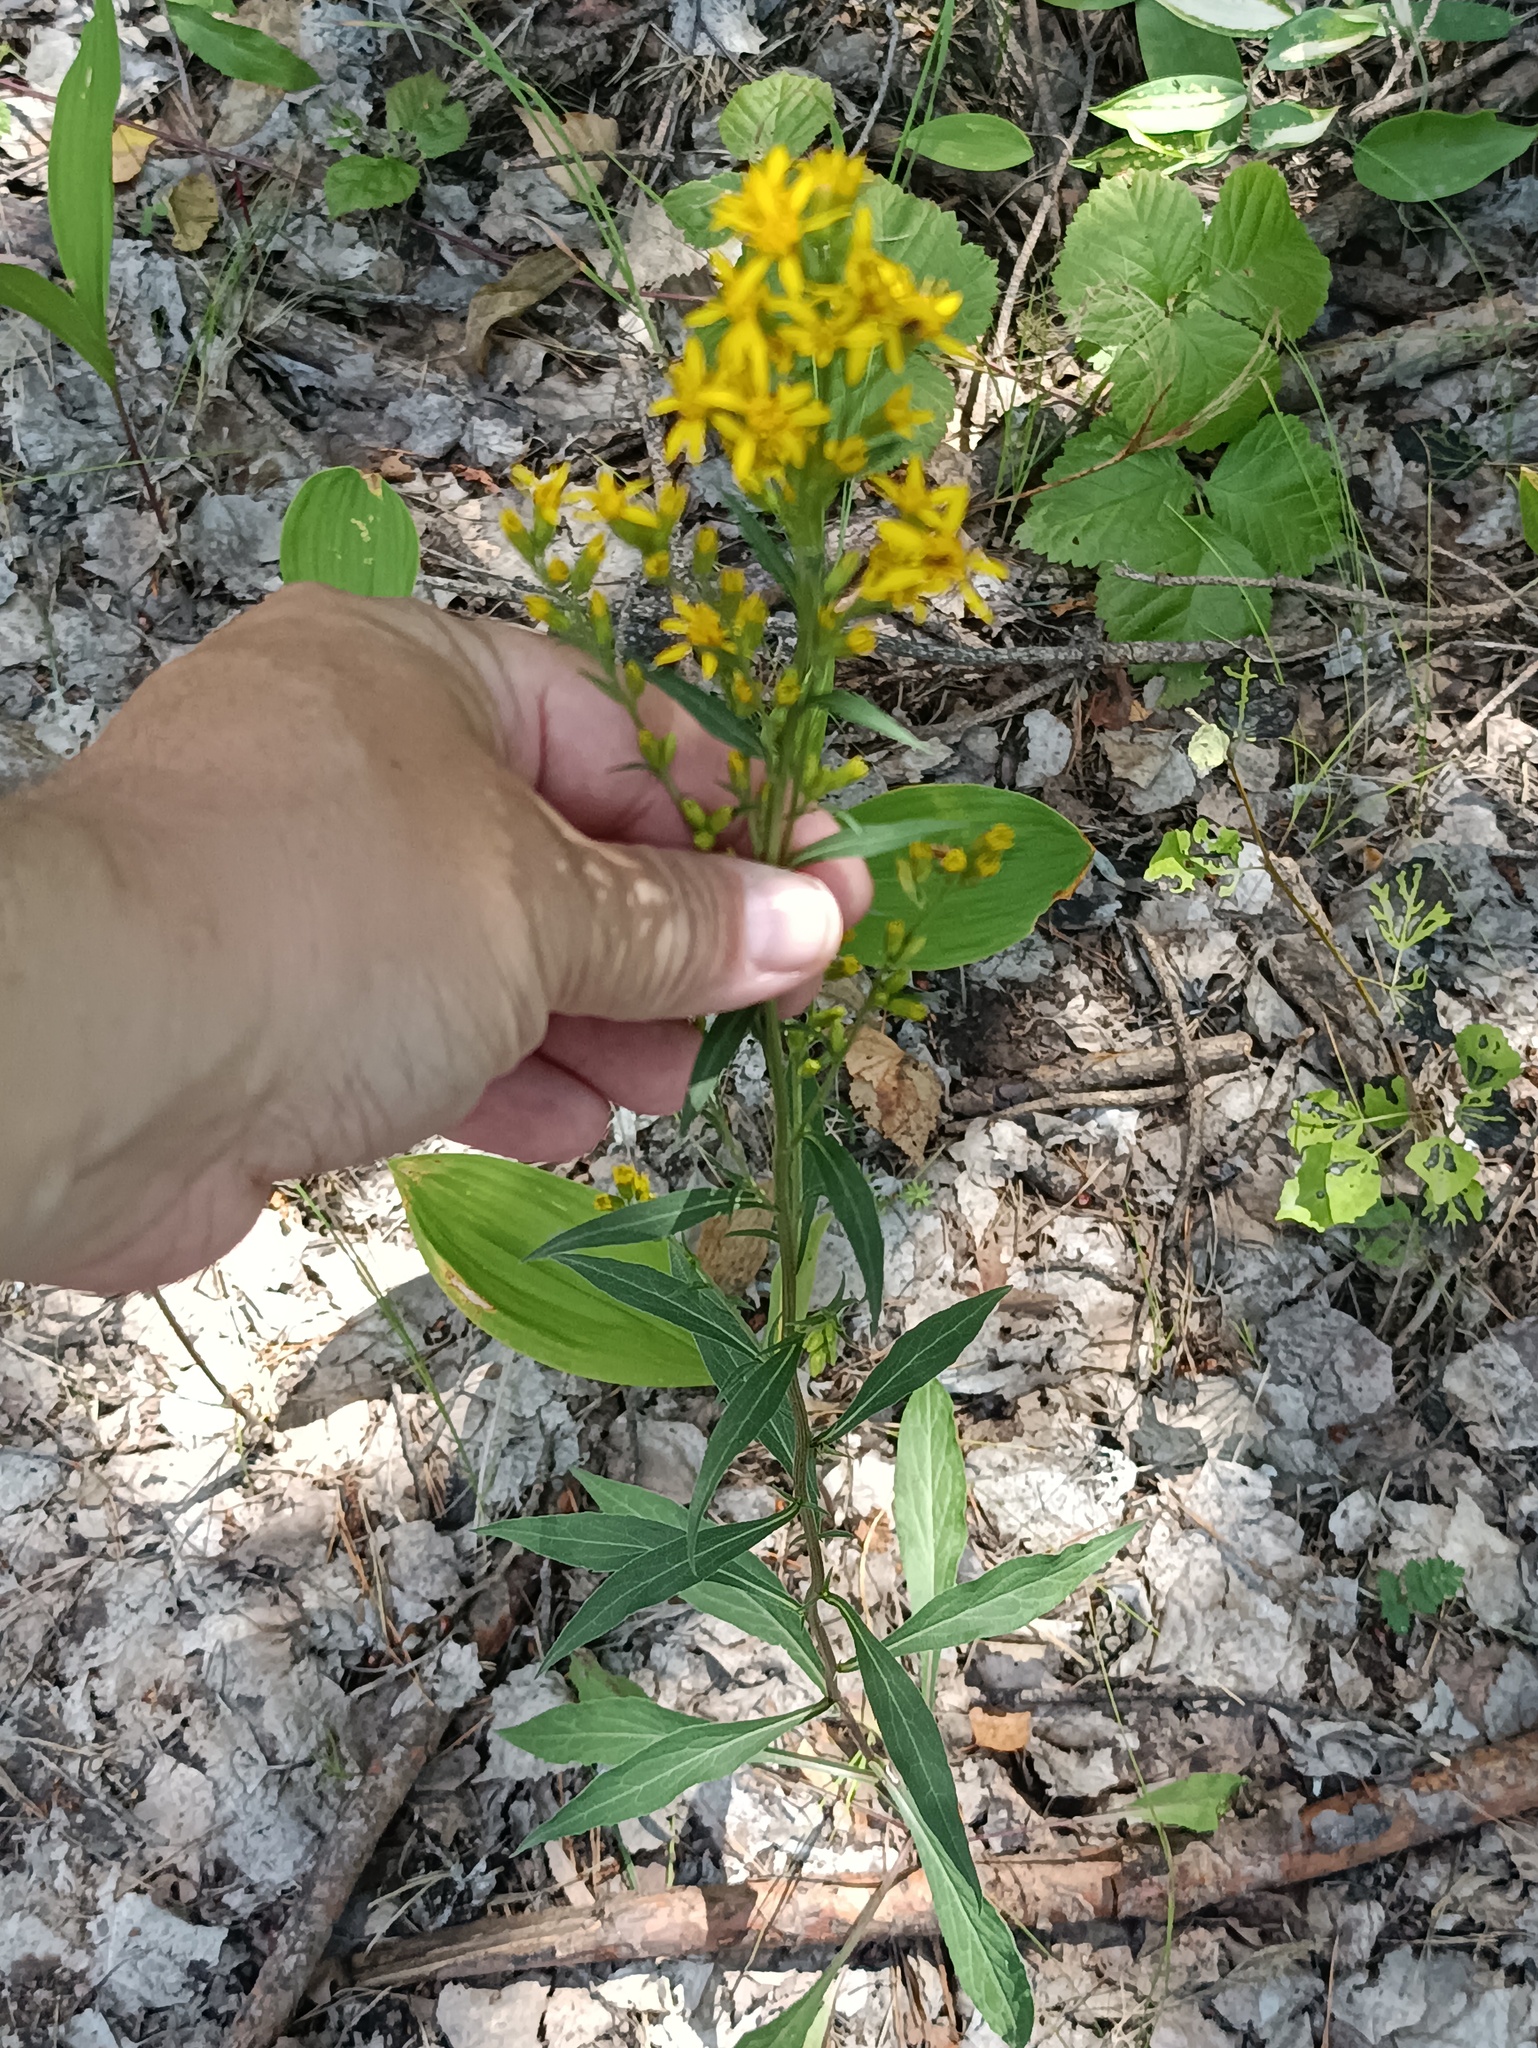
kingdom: Plantae
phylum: Tracheophyta
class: Magnoliopsida
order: Asterales
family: Asteraceae
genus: Solidago
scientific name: Solidago virgaurea
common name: Goldenrod
